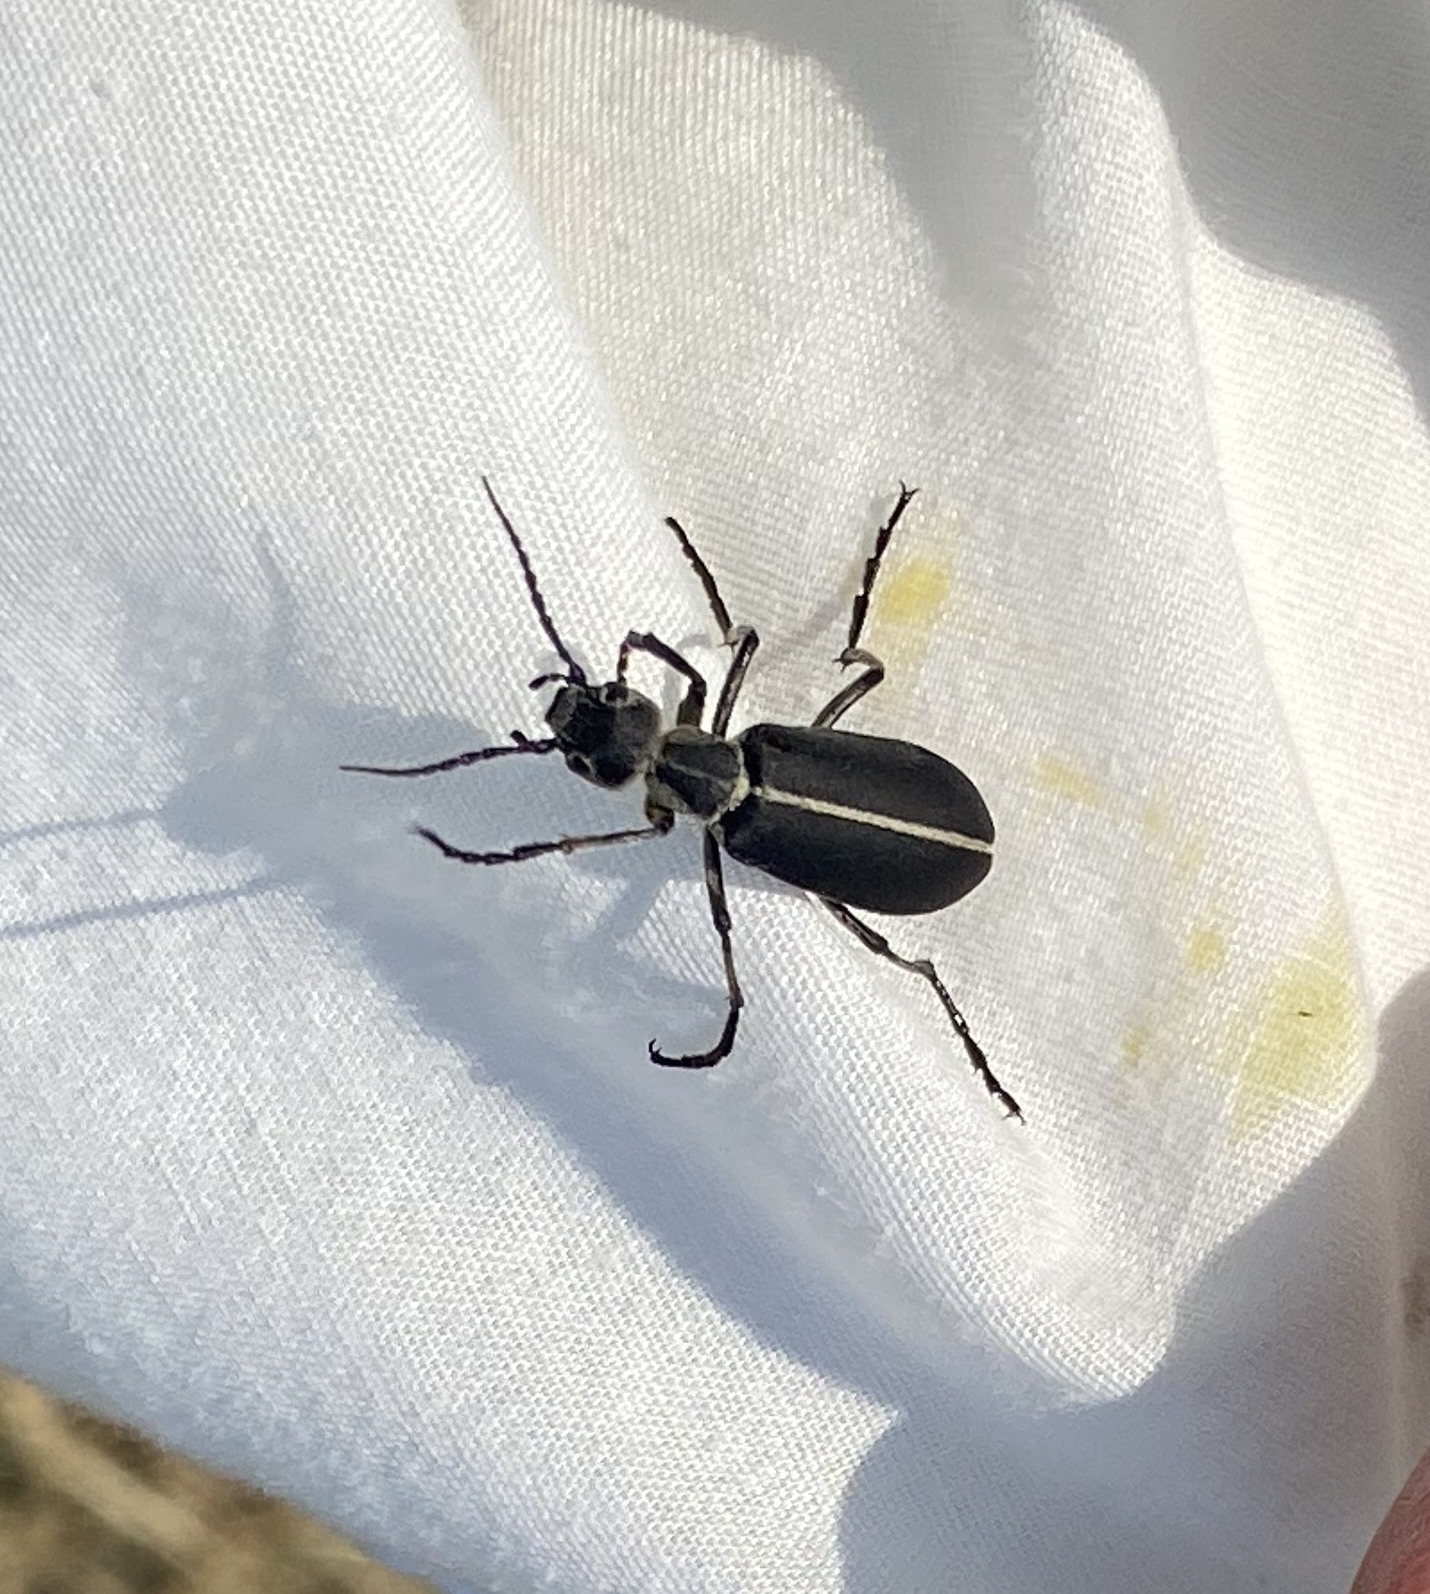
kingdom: Animalia
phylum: Arthropoda
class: Insecta
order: Coleoptera
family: Meloidae
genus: Epicauta
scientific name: Epicauta cinerea
